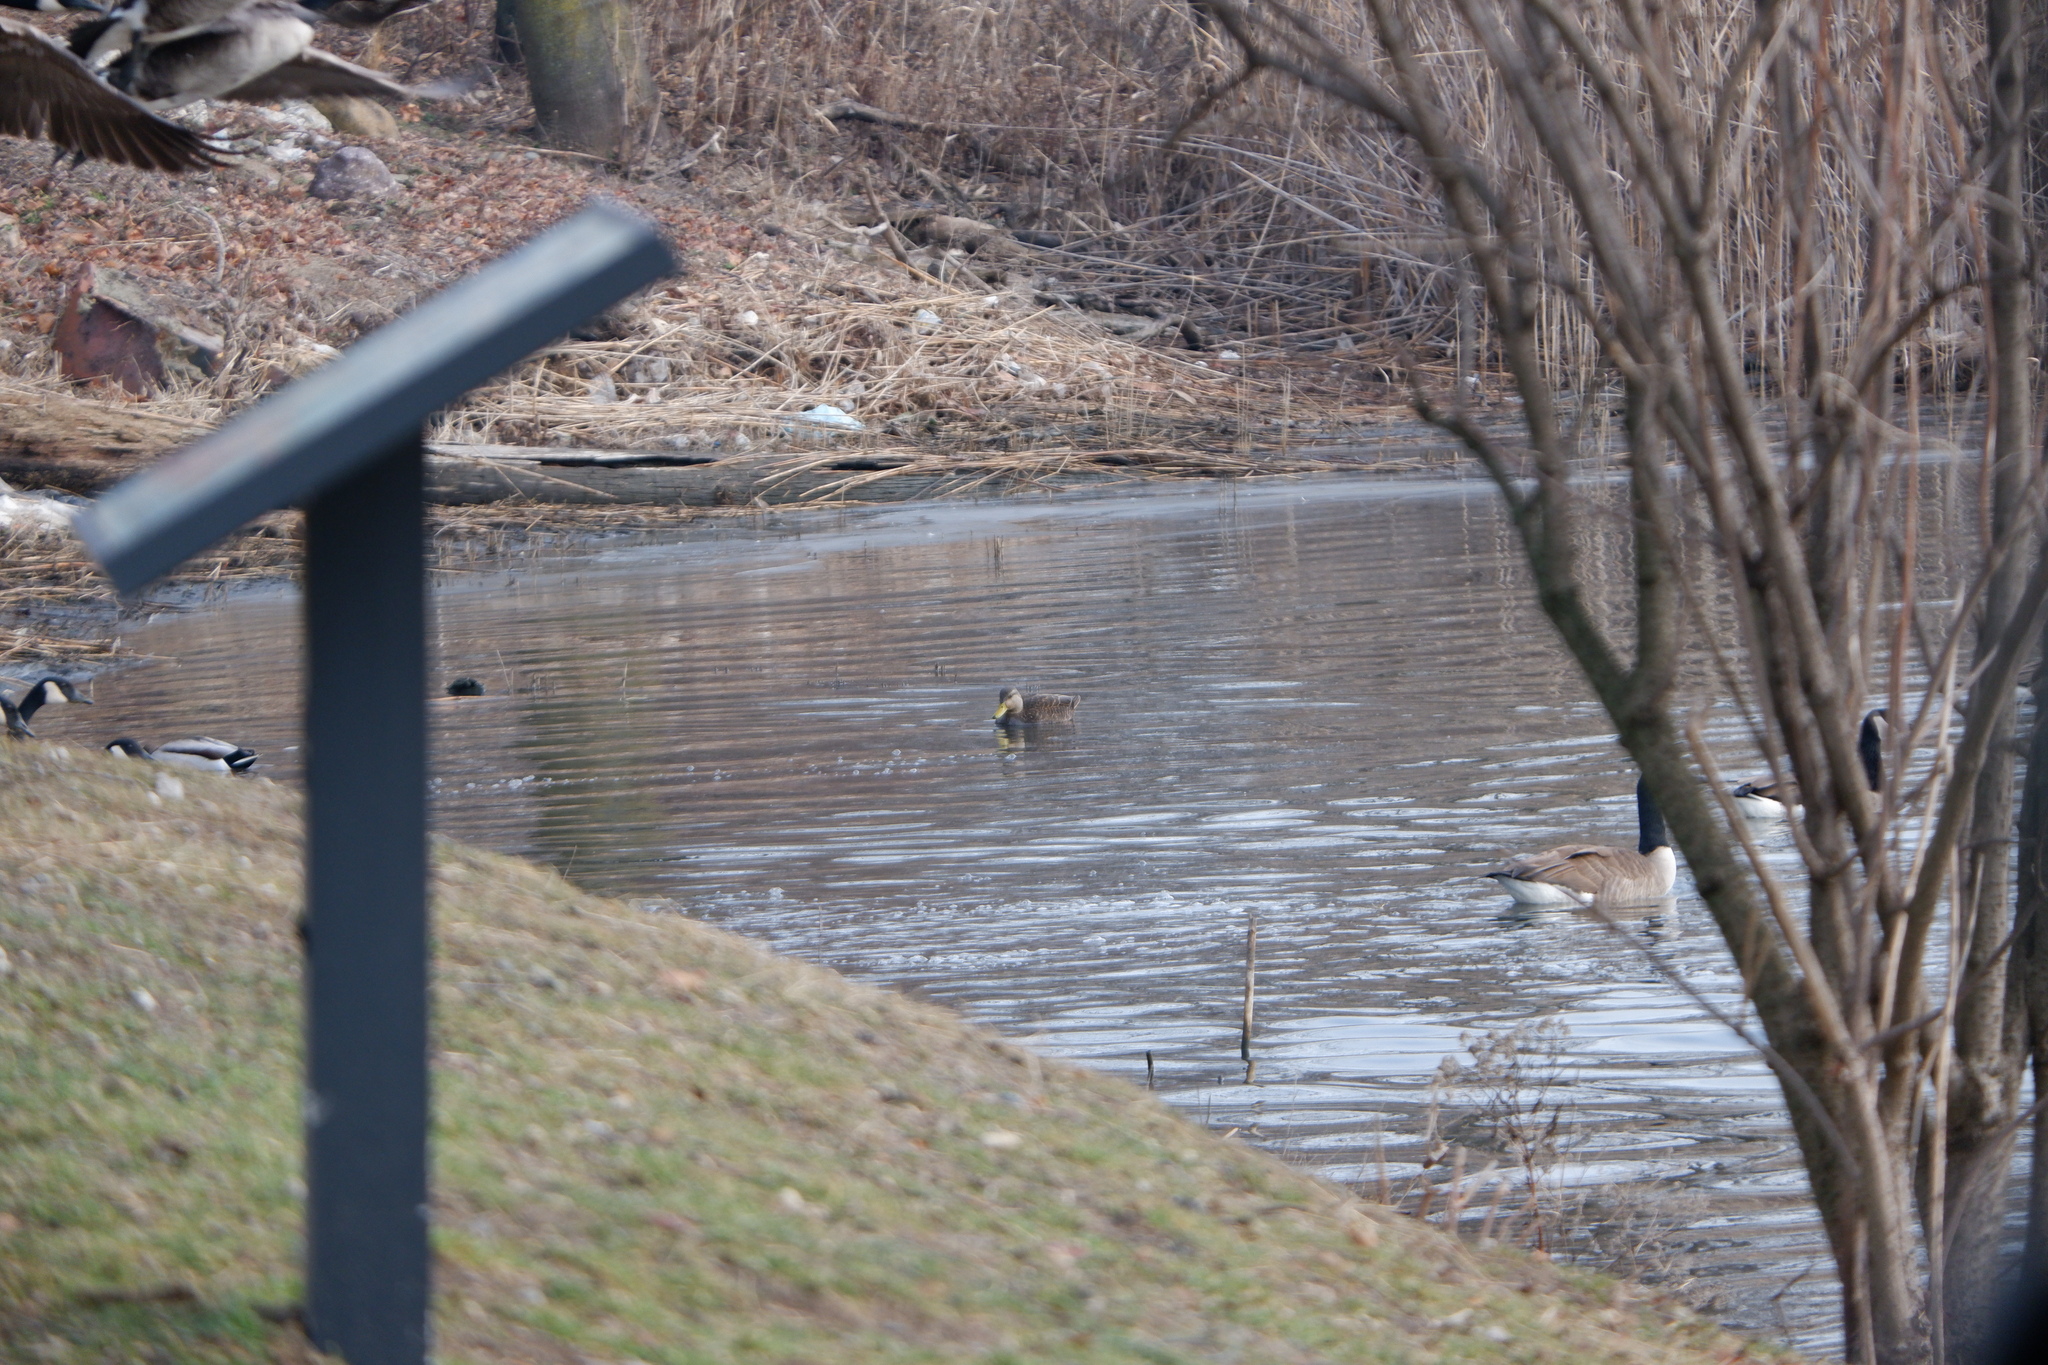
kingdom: Animalia
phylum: Chordata
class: Aves
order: Anseriformes
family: Anatidae
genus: Anas
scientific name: Anas rubripes
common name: American black duck
